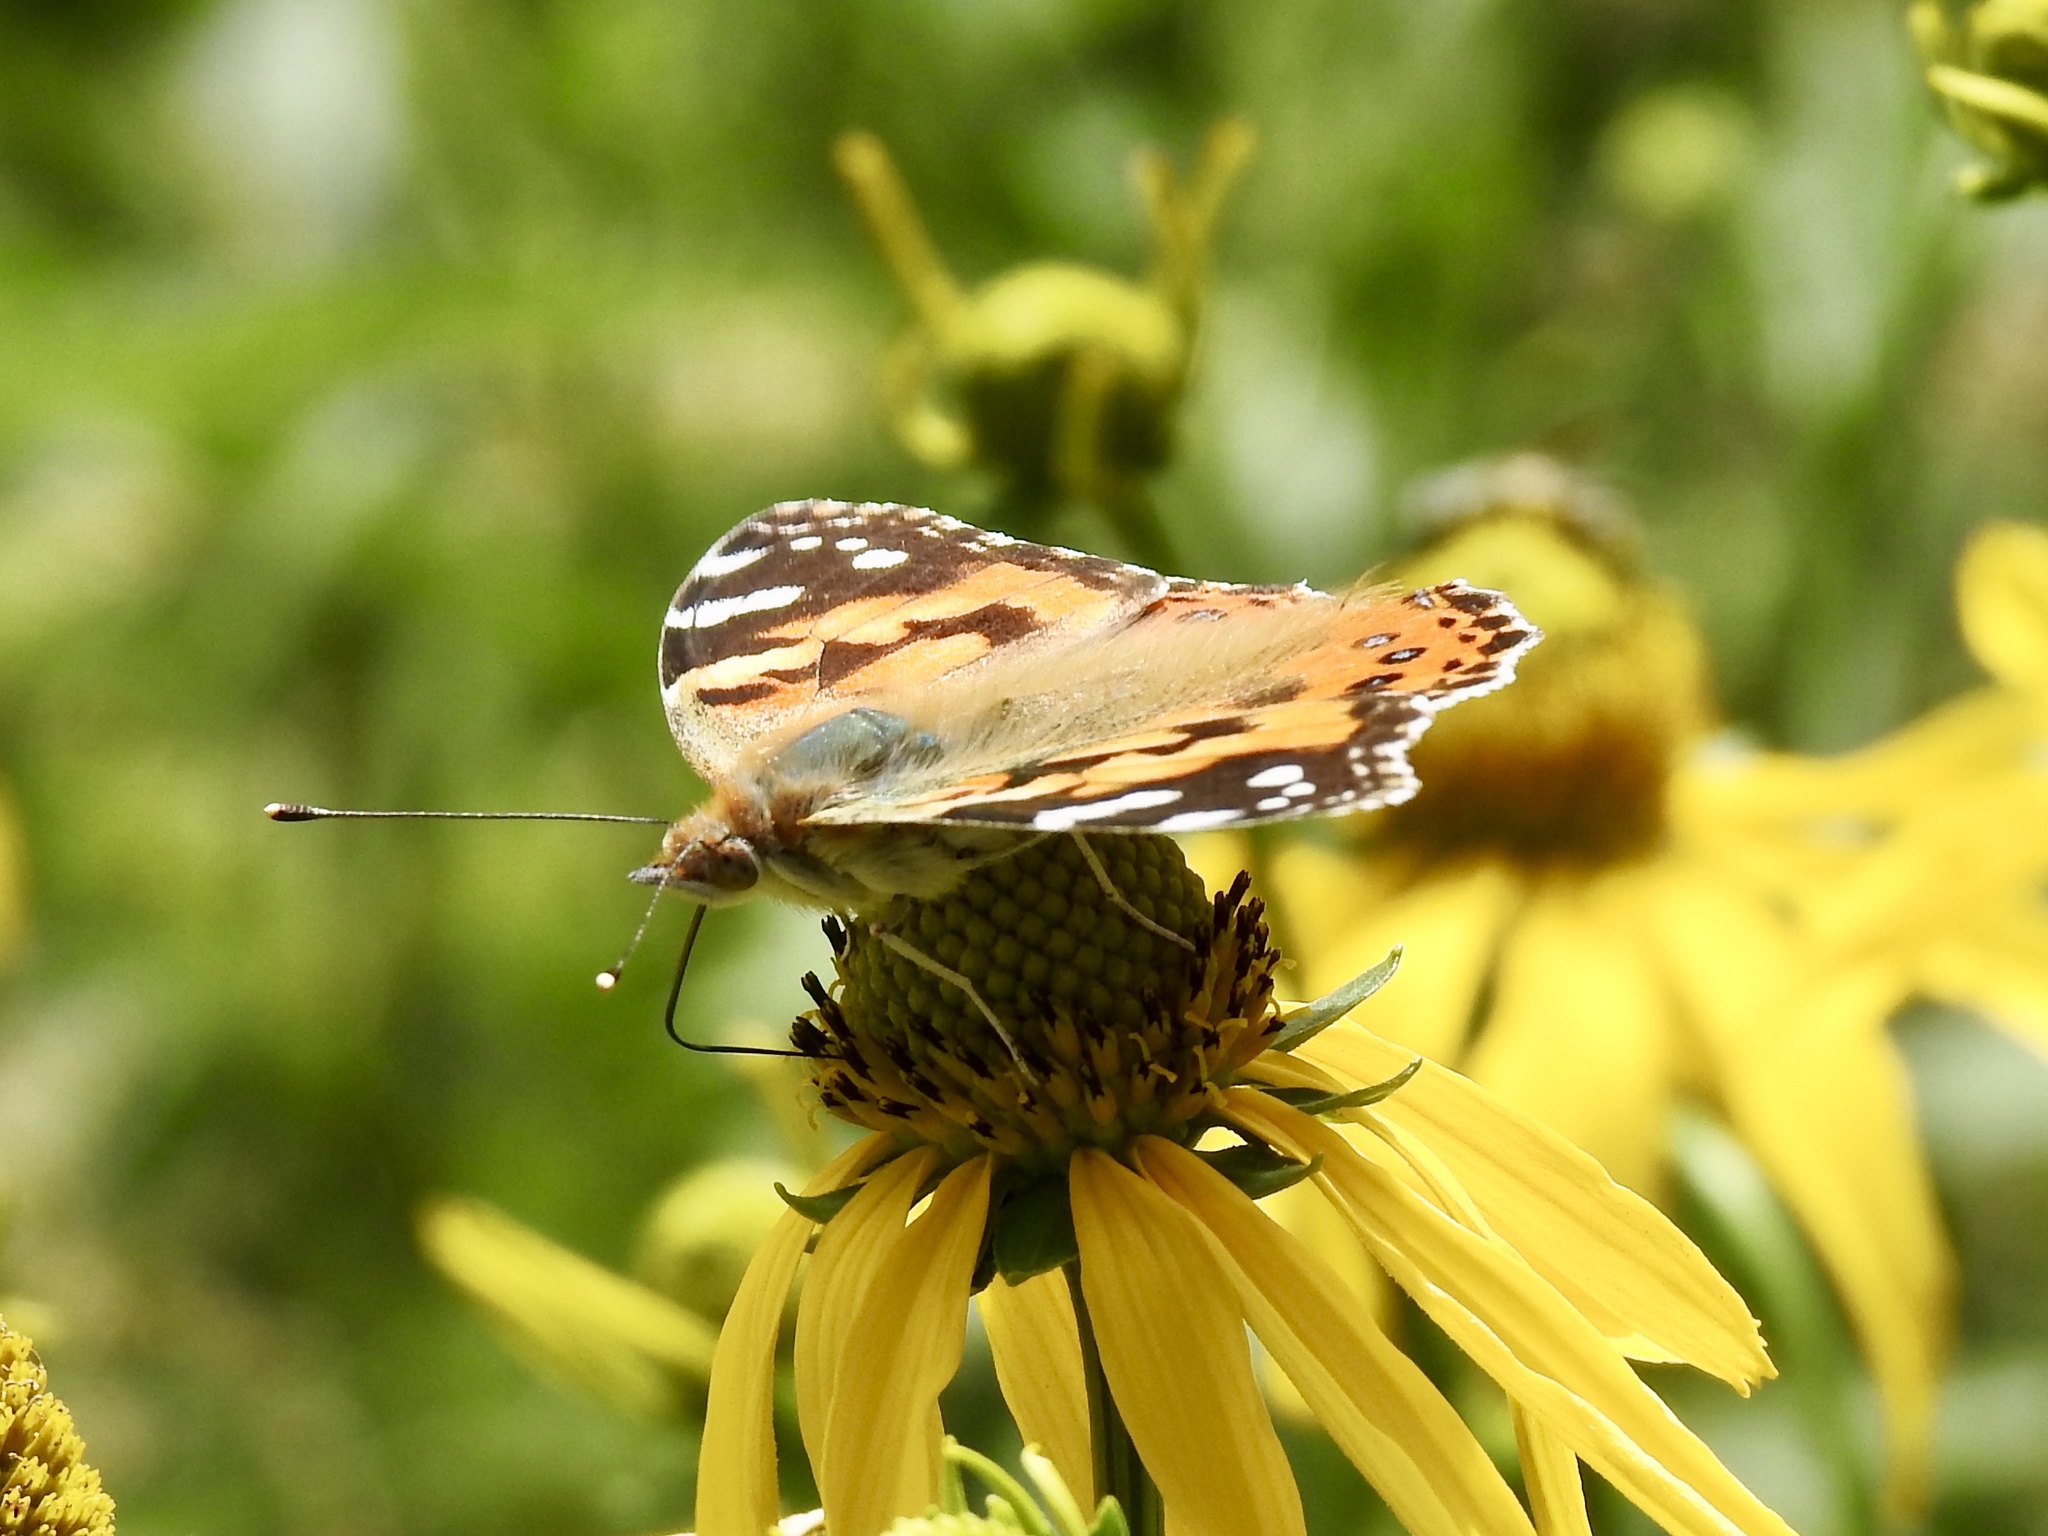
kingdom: Animalia
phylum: Arthropoda
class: Insecta
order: Lepidoptera
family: Nymphalidae
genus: Vanessa
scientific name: Vanessa cardui
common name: Painted lady
